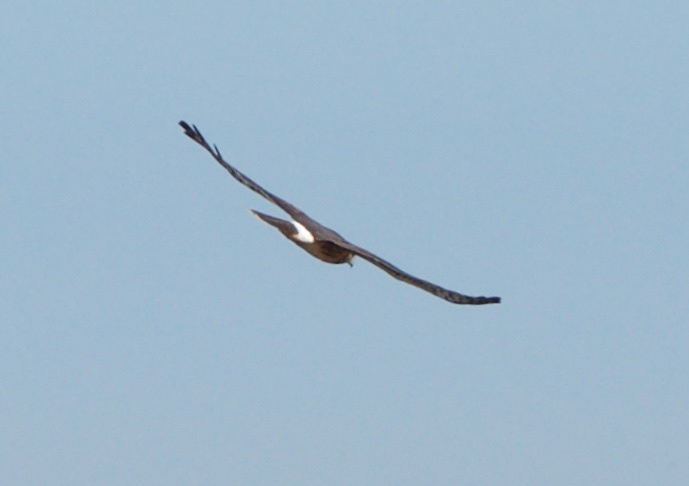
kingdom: Animalia
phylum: Chordata
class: Aves
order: Accipitriformes
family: Accipitridae
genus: Circus
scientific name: Circus cyaneus
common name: Hen harrier
